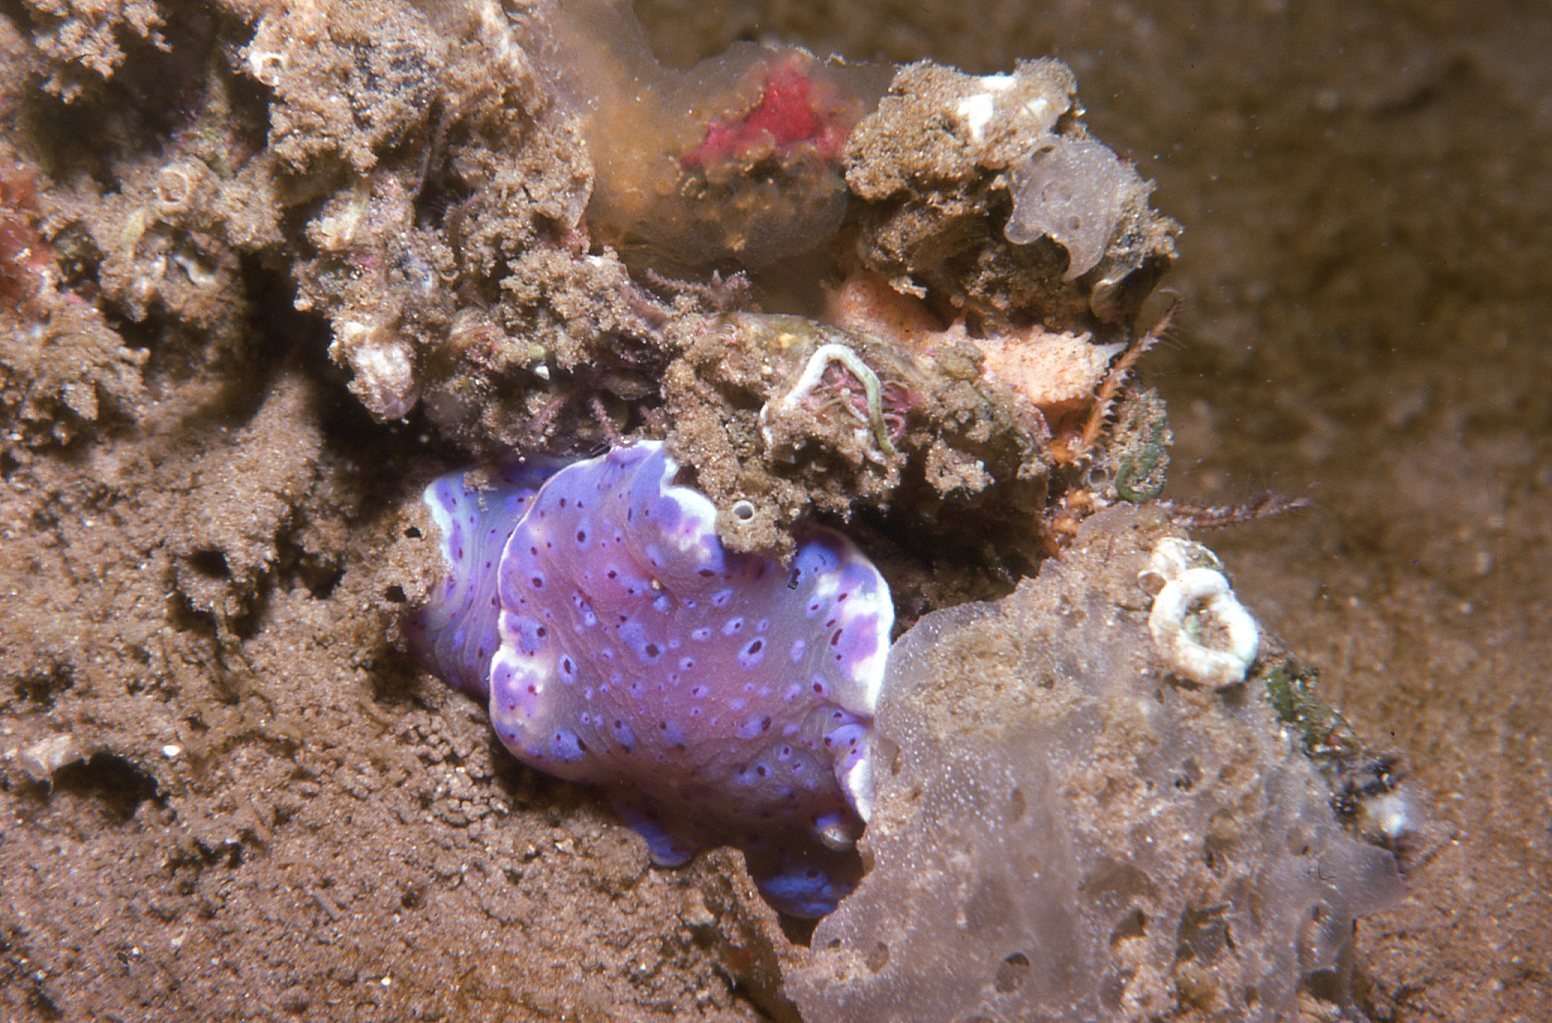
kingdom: Animalia
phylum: Mollusca
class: Gastropoda
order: Nudibranchia
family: Chromodorididae
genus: Goniobranchus
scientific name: Goniobranchus thompsoni
